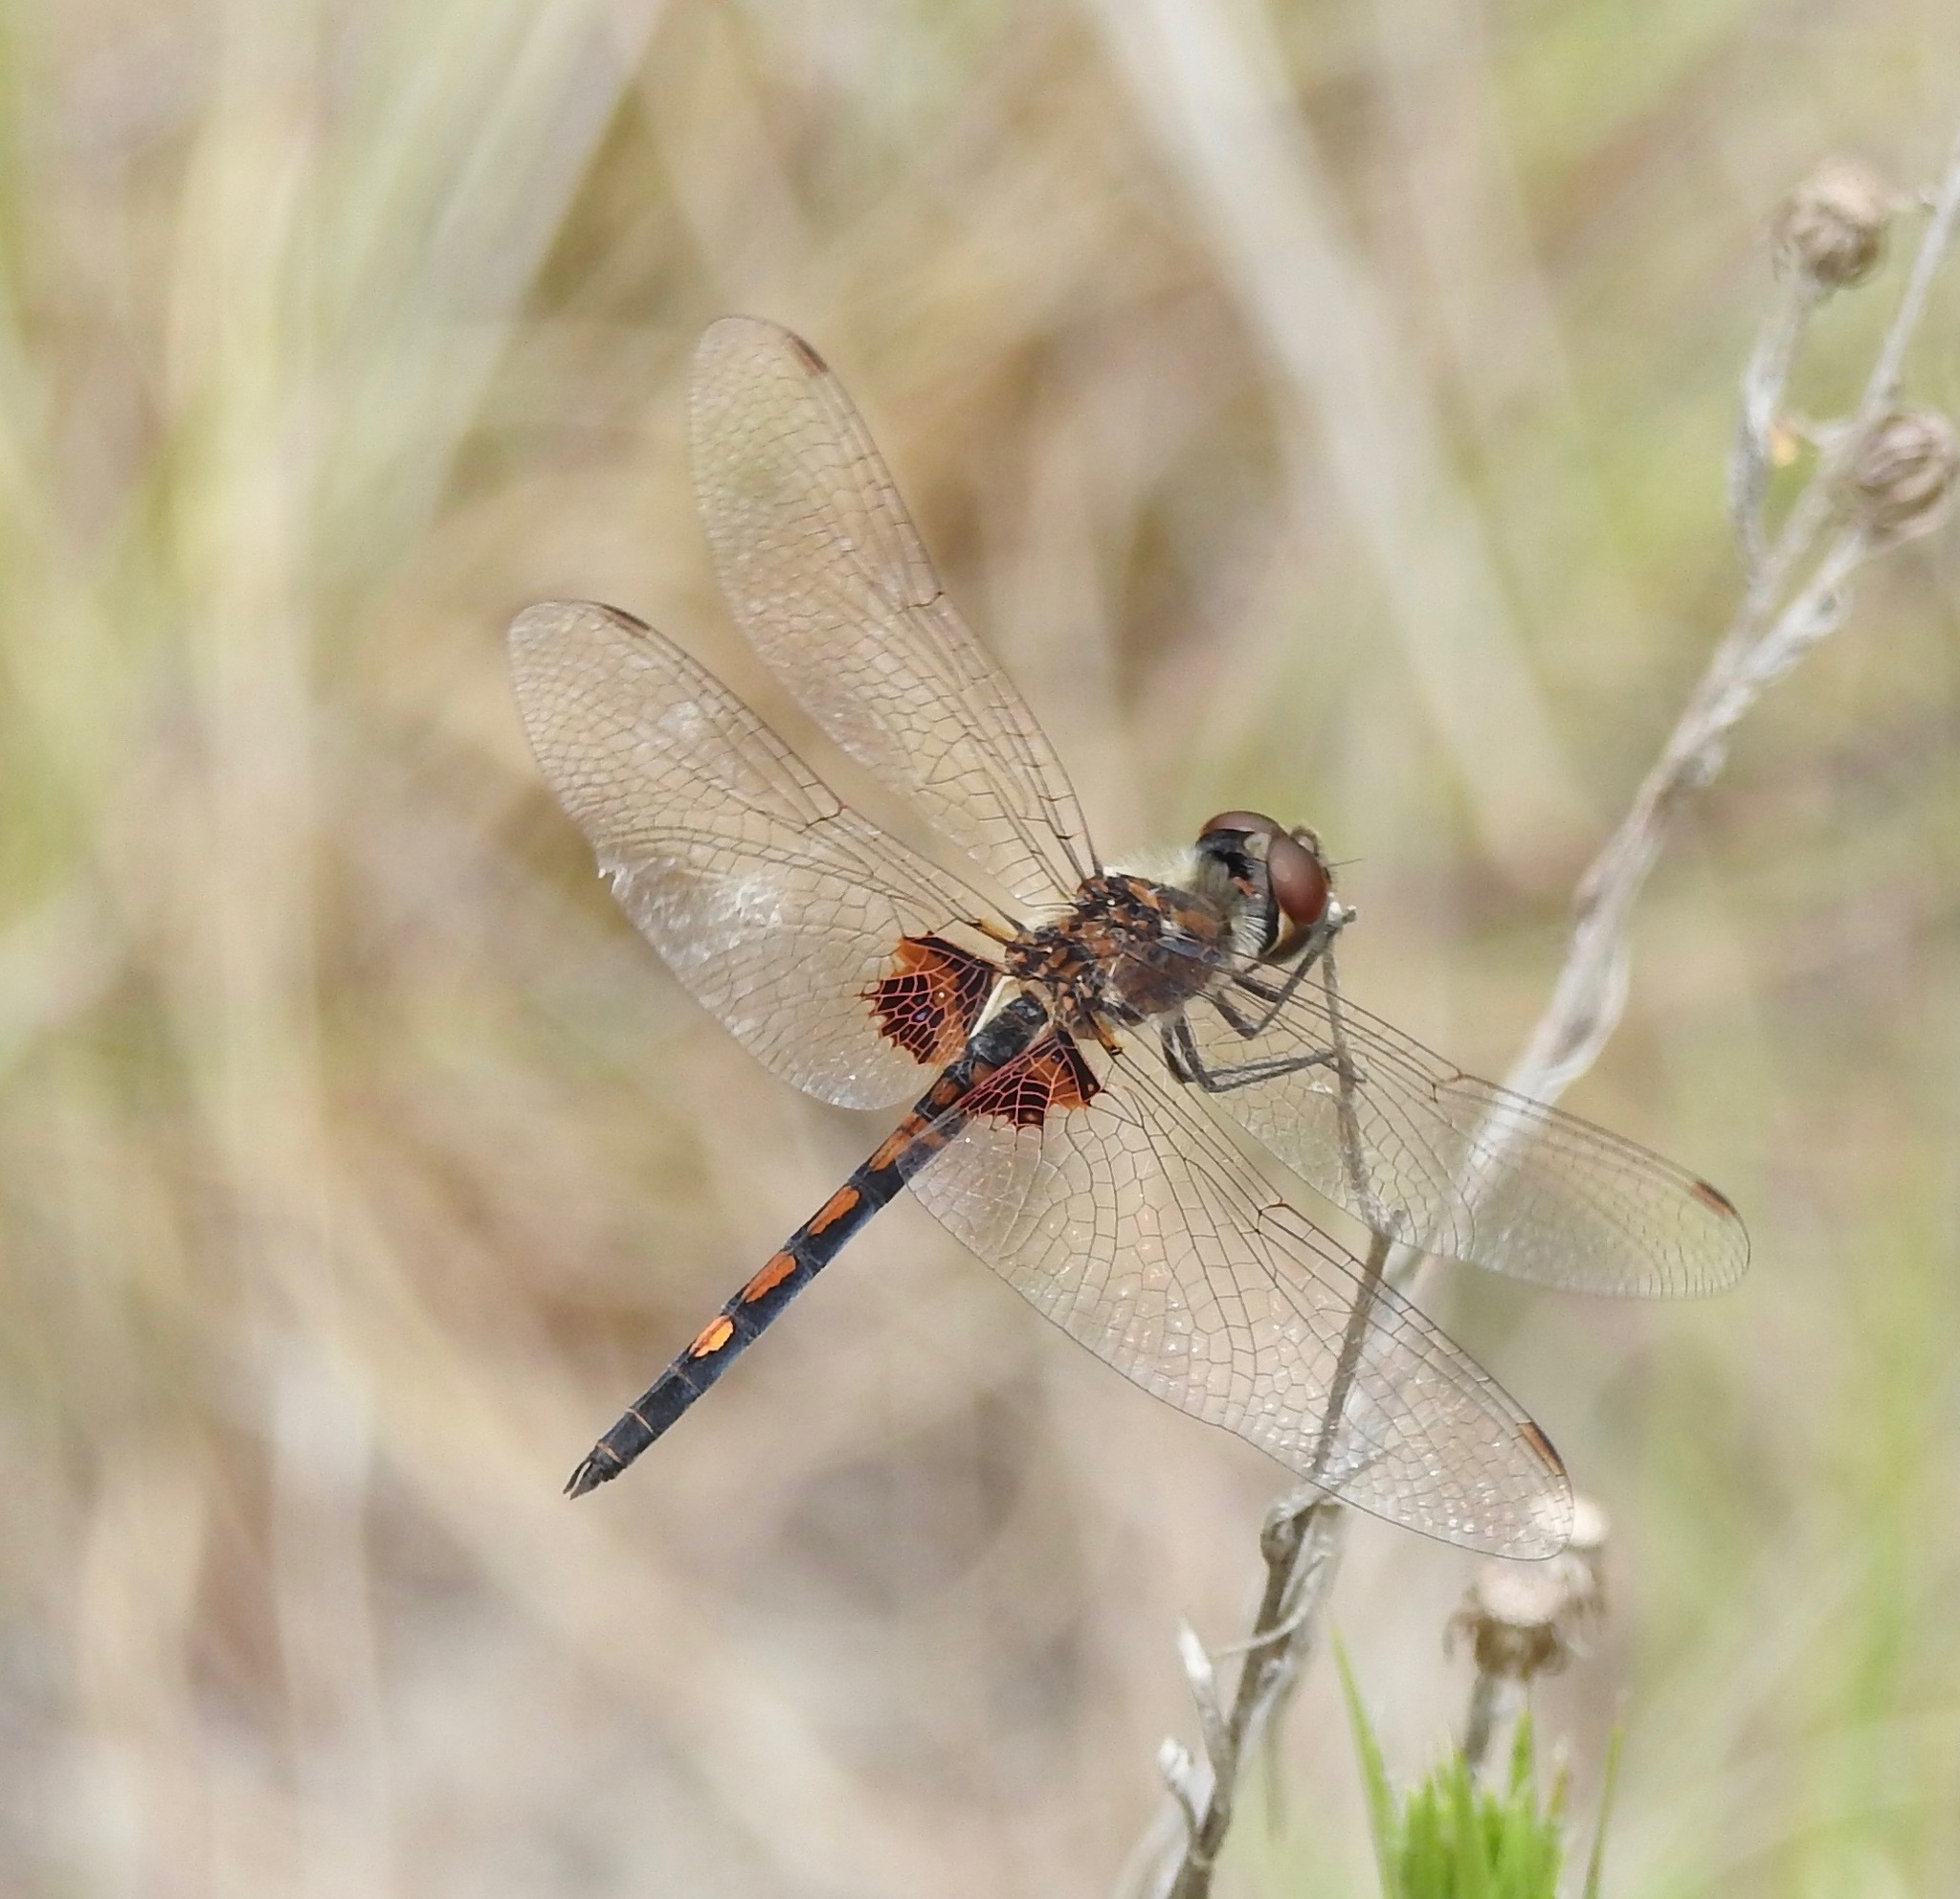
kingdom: Animalia
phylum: Arthropoda
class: Insecta
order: Odonata
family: Libellulidae
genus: Celithemis
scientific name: Celithemis ornata
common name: Ornate pennant
